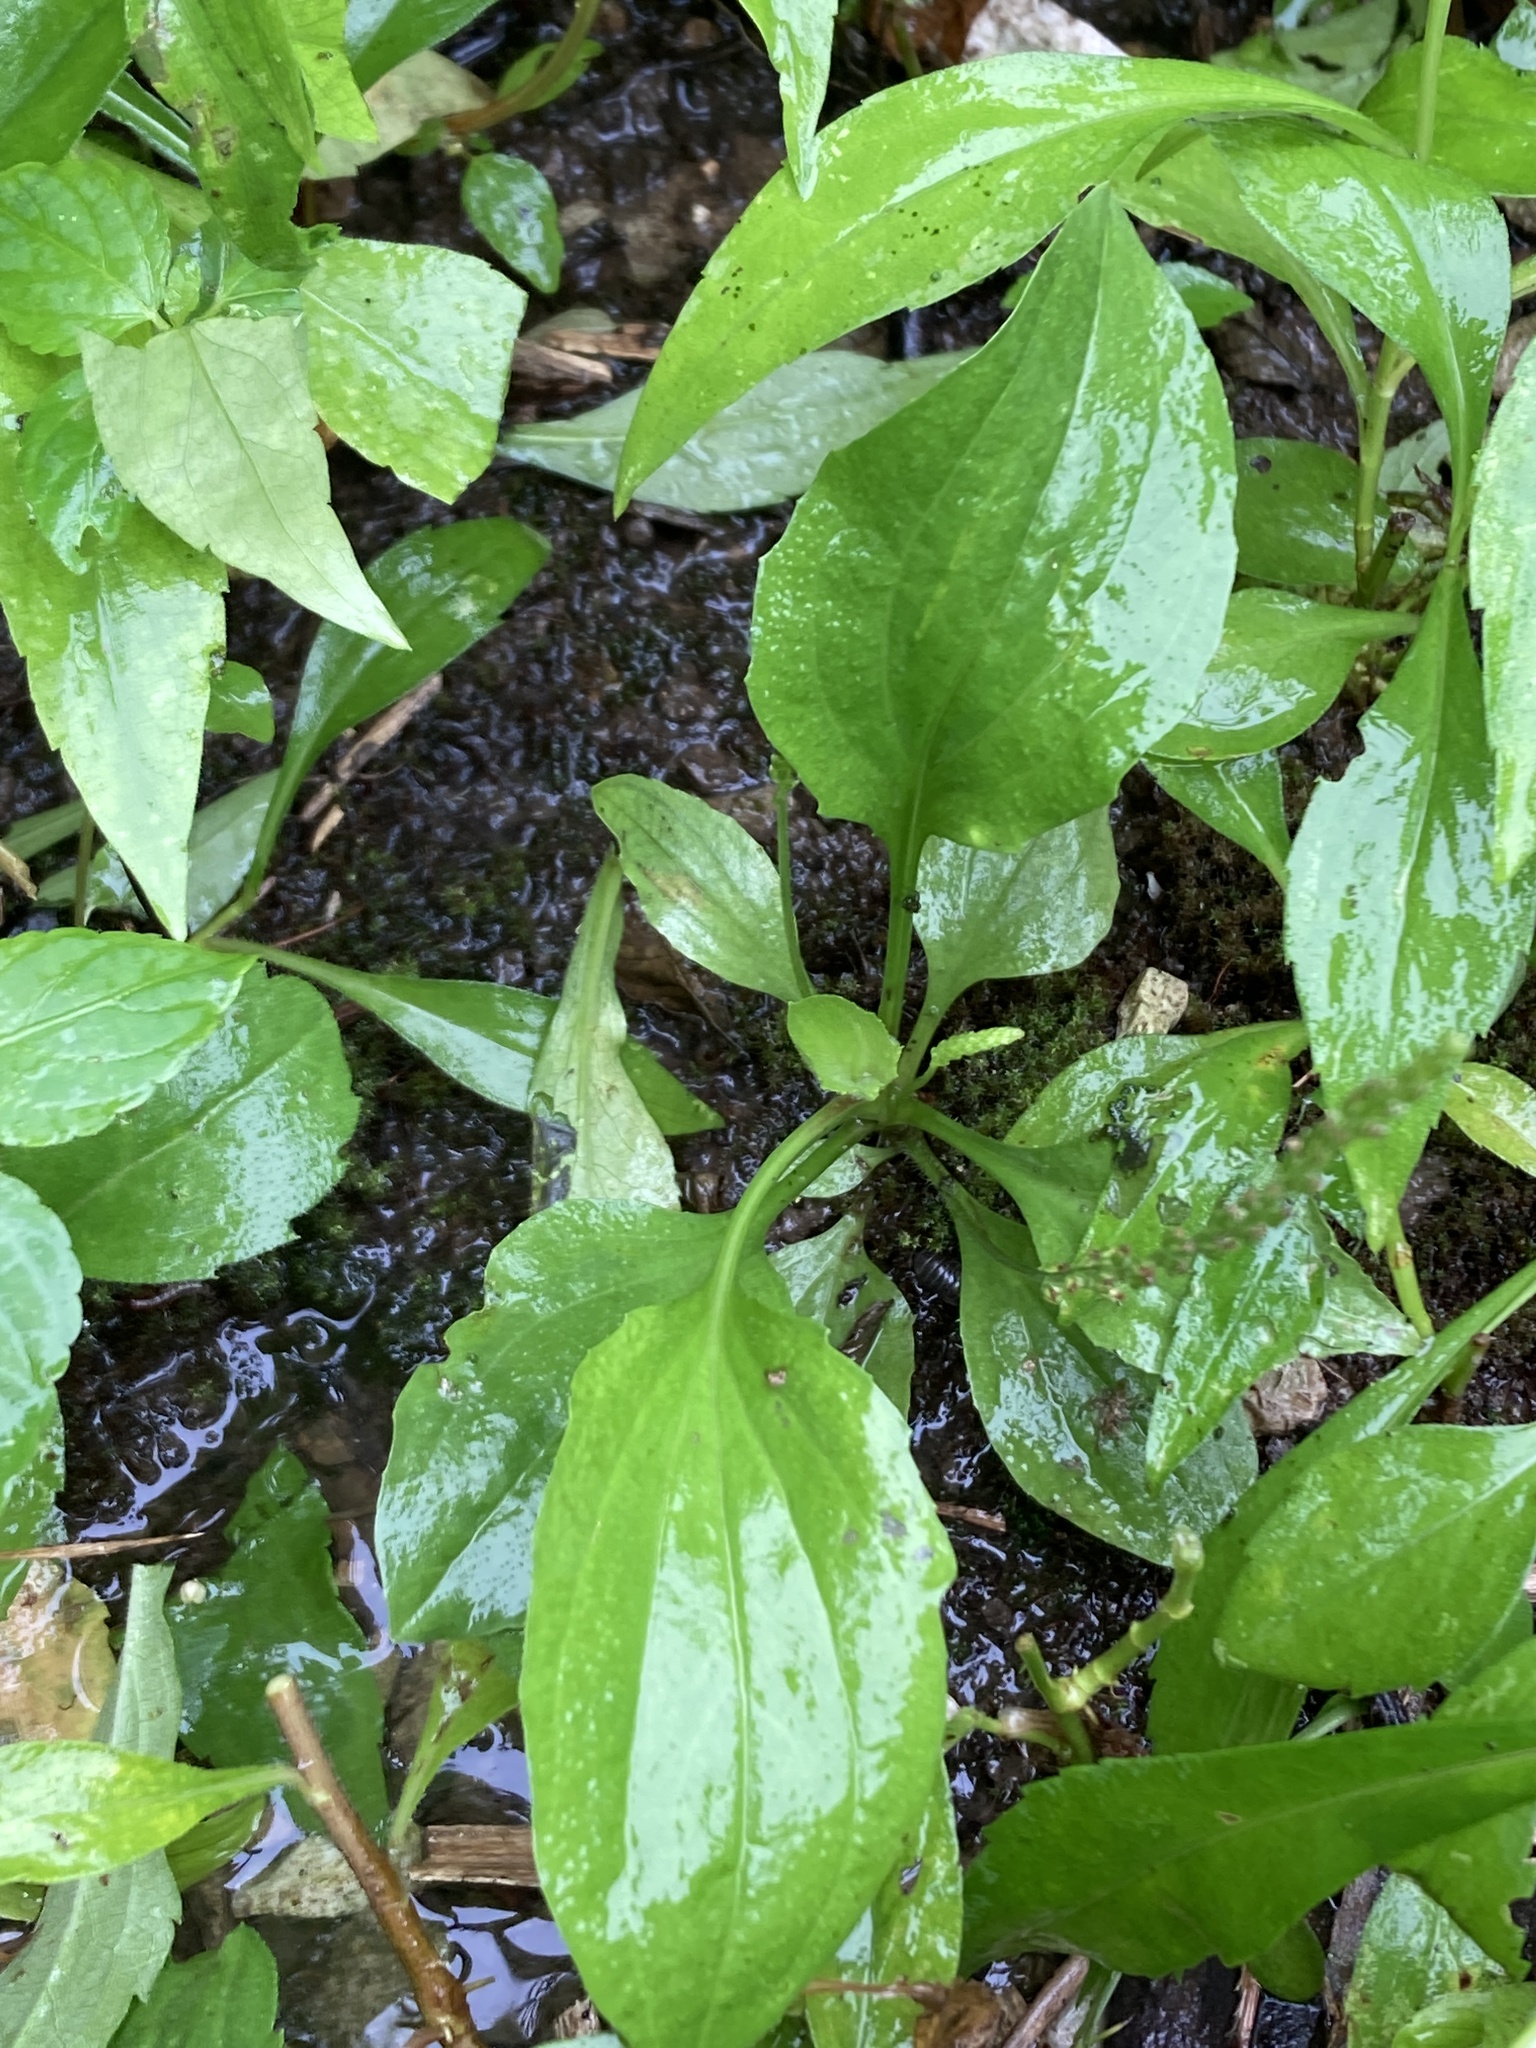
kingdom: Plantae
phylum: Tracheophyta
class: Magnoliopsida
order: Lamiales
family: Plantaginaceae
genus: Plantago
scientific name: Plantago rugelii
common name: American plantain
